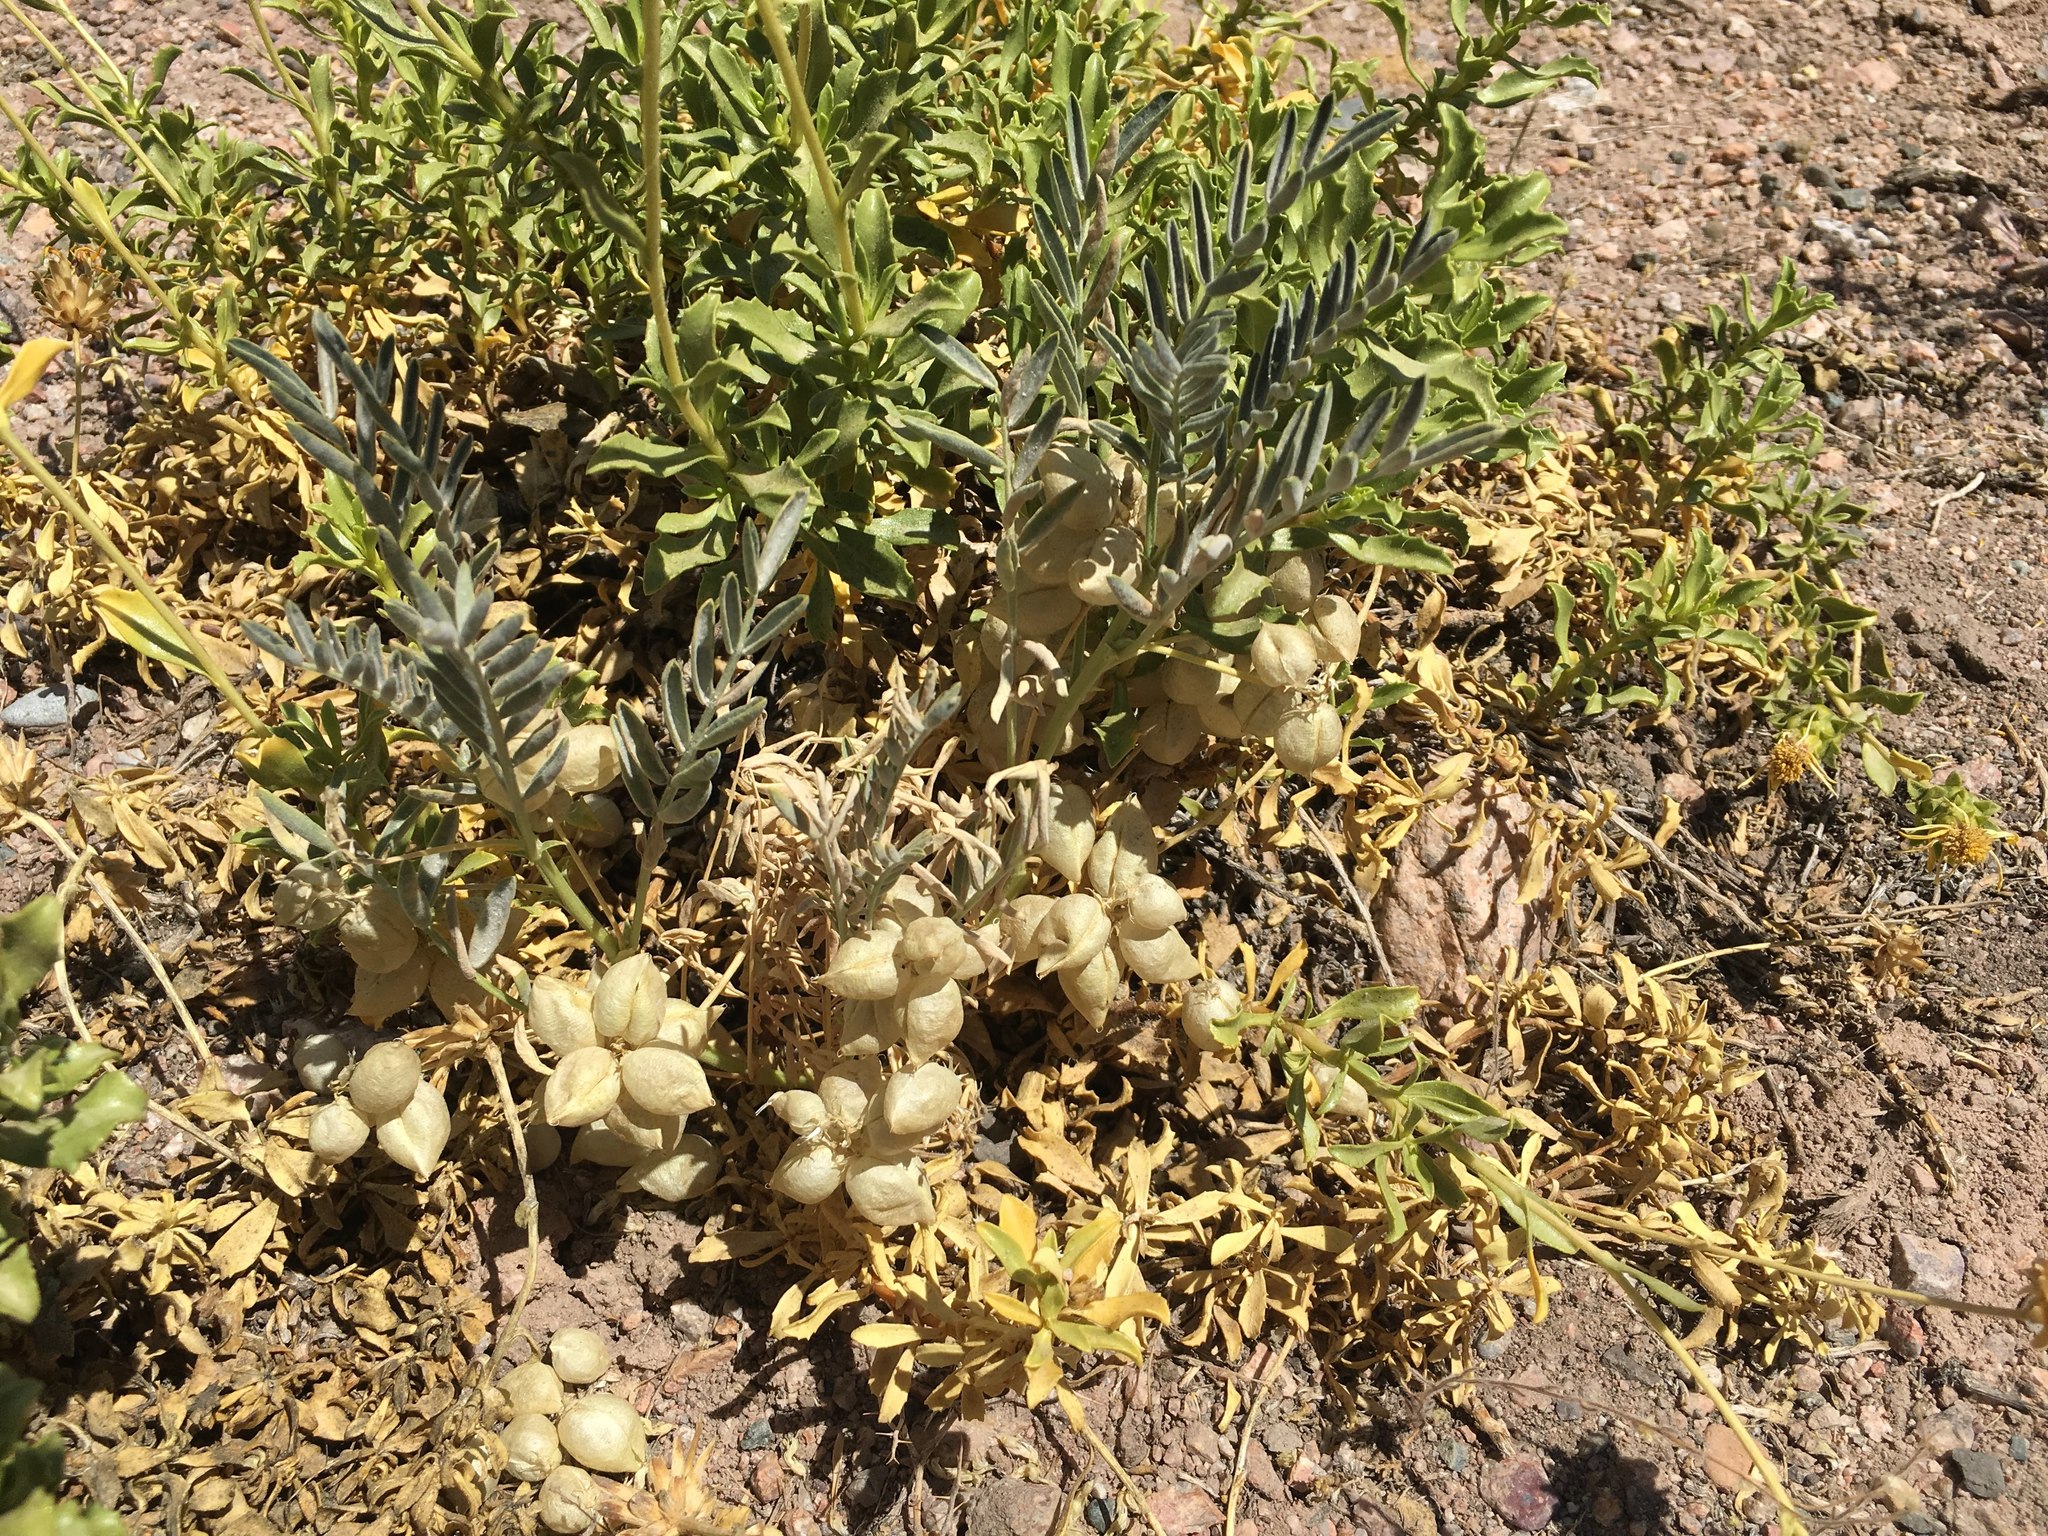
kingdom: Plantae
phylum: Tracheophyta
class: Magnoliopsida
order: Fabales
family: Fabaceae
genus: Astragalus
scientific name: Astragalus pehuenches
